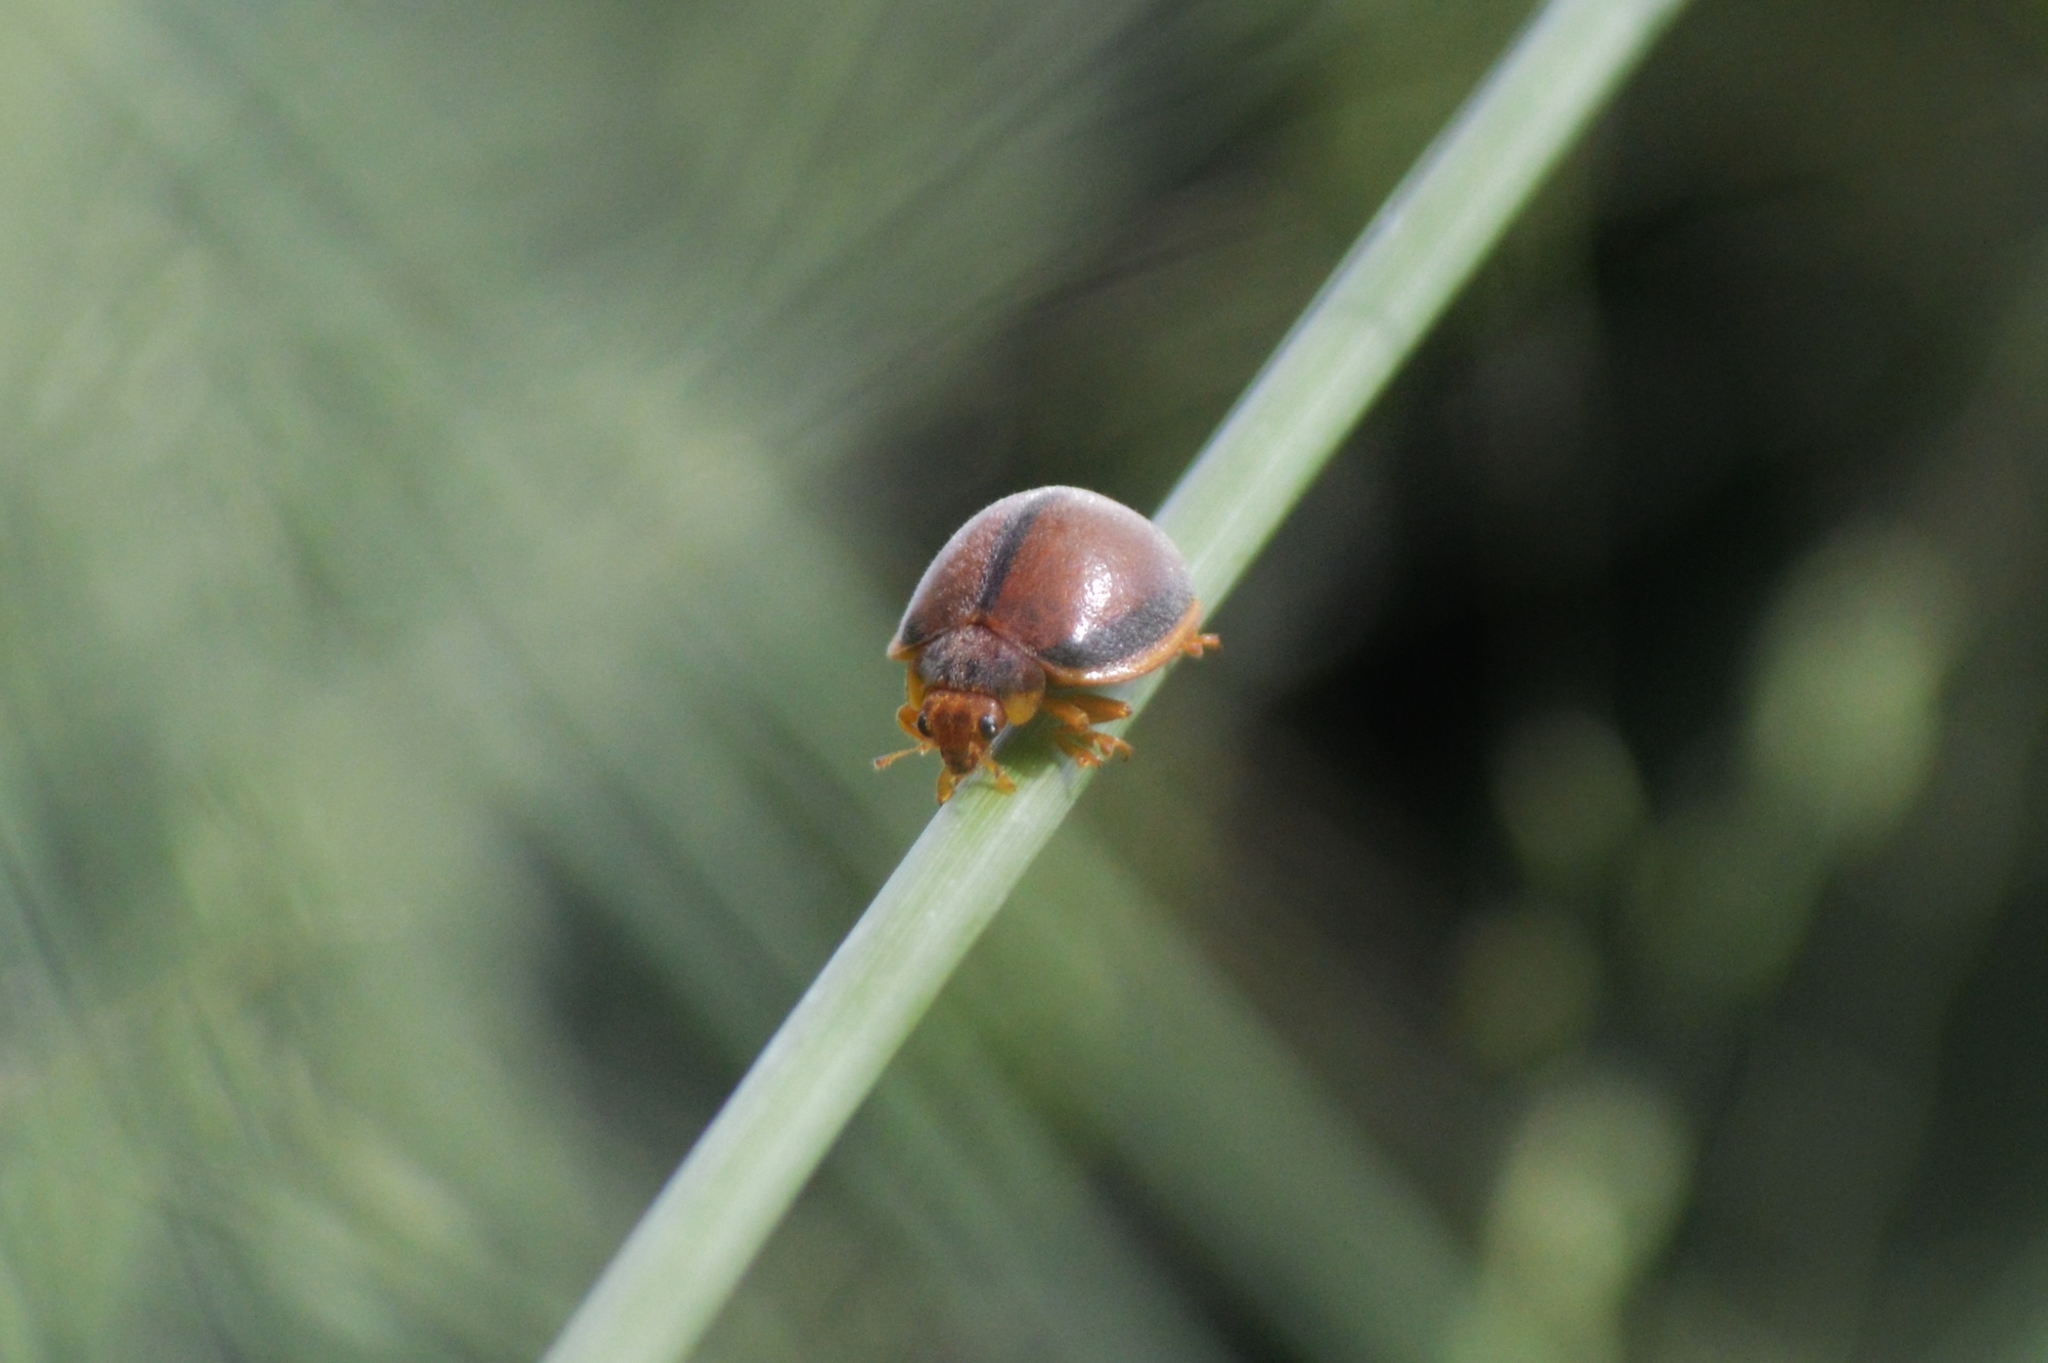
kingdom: Animalia
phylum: Arthropoda
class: Insecta
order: Coleoptera
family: Coccinellidae
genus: Epilachna
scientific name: Epilachna cacica
